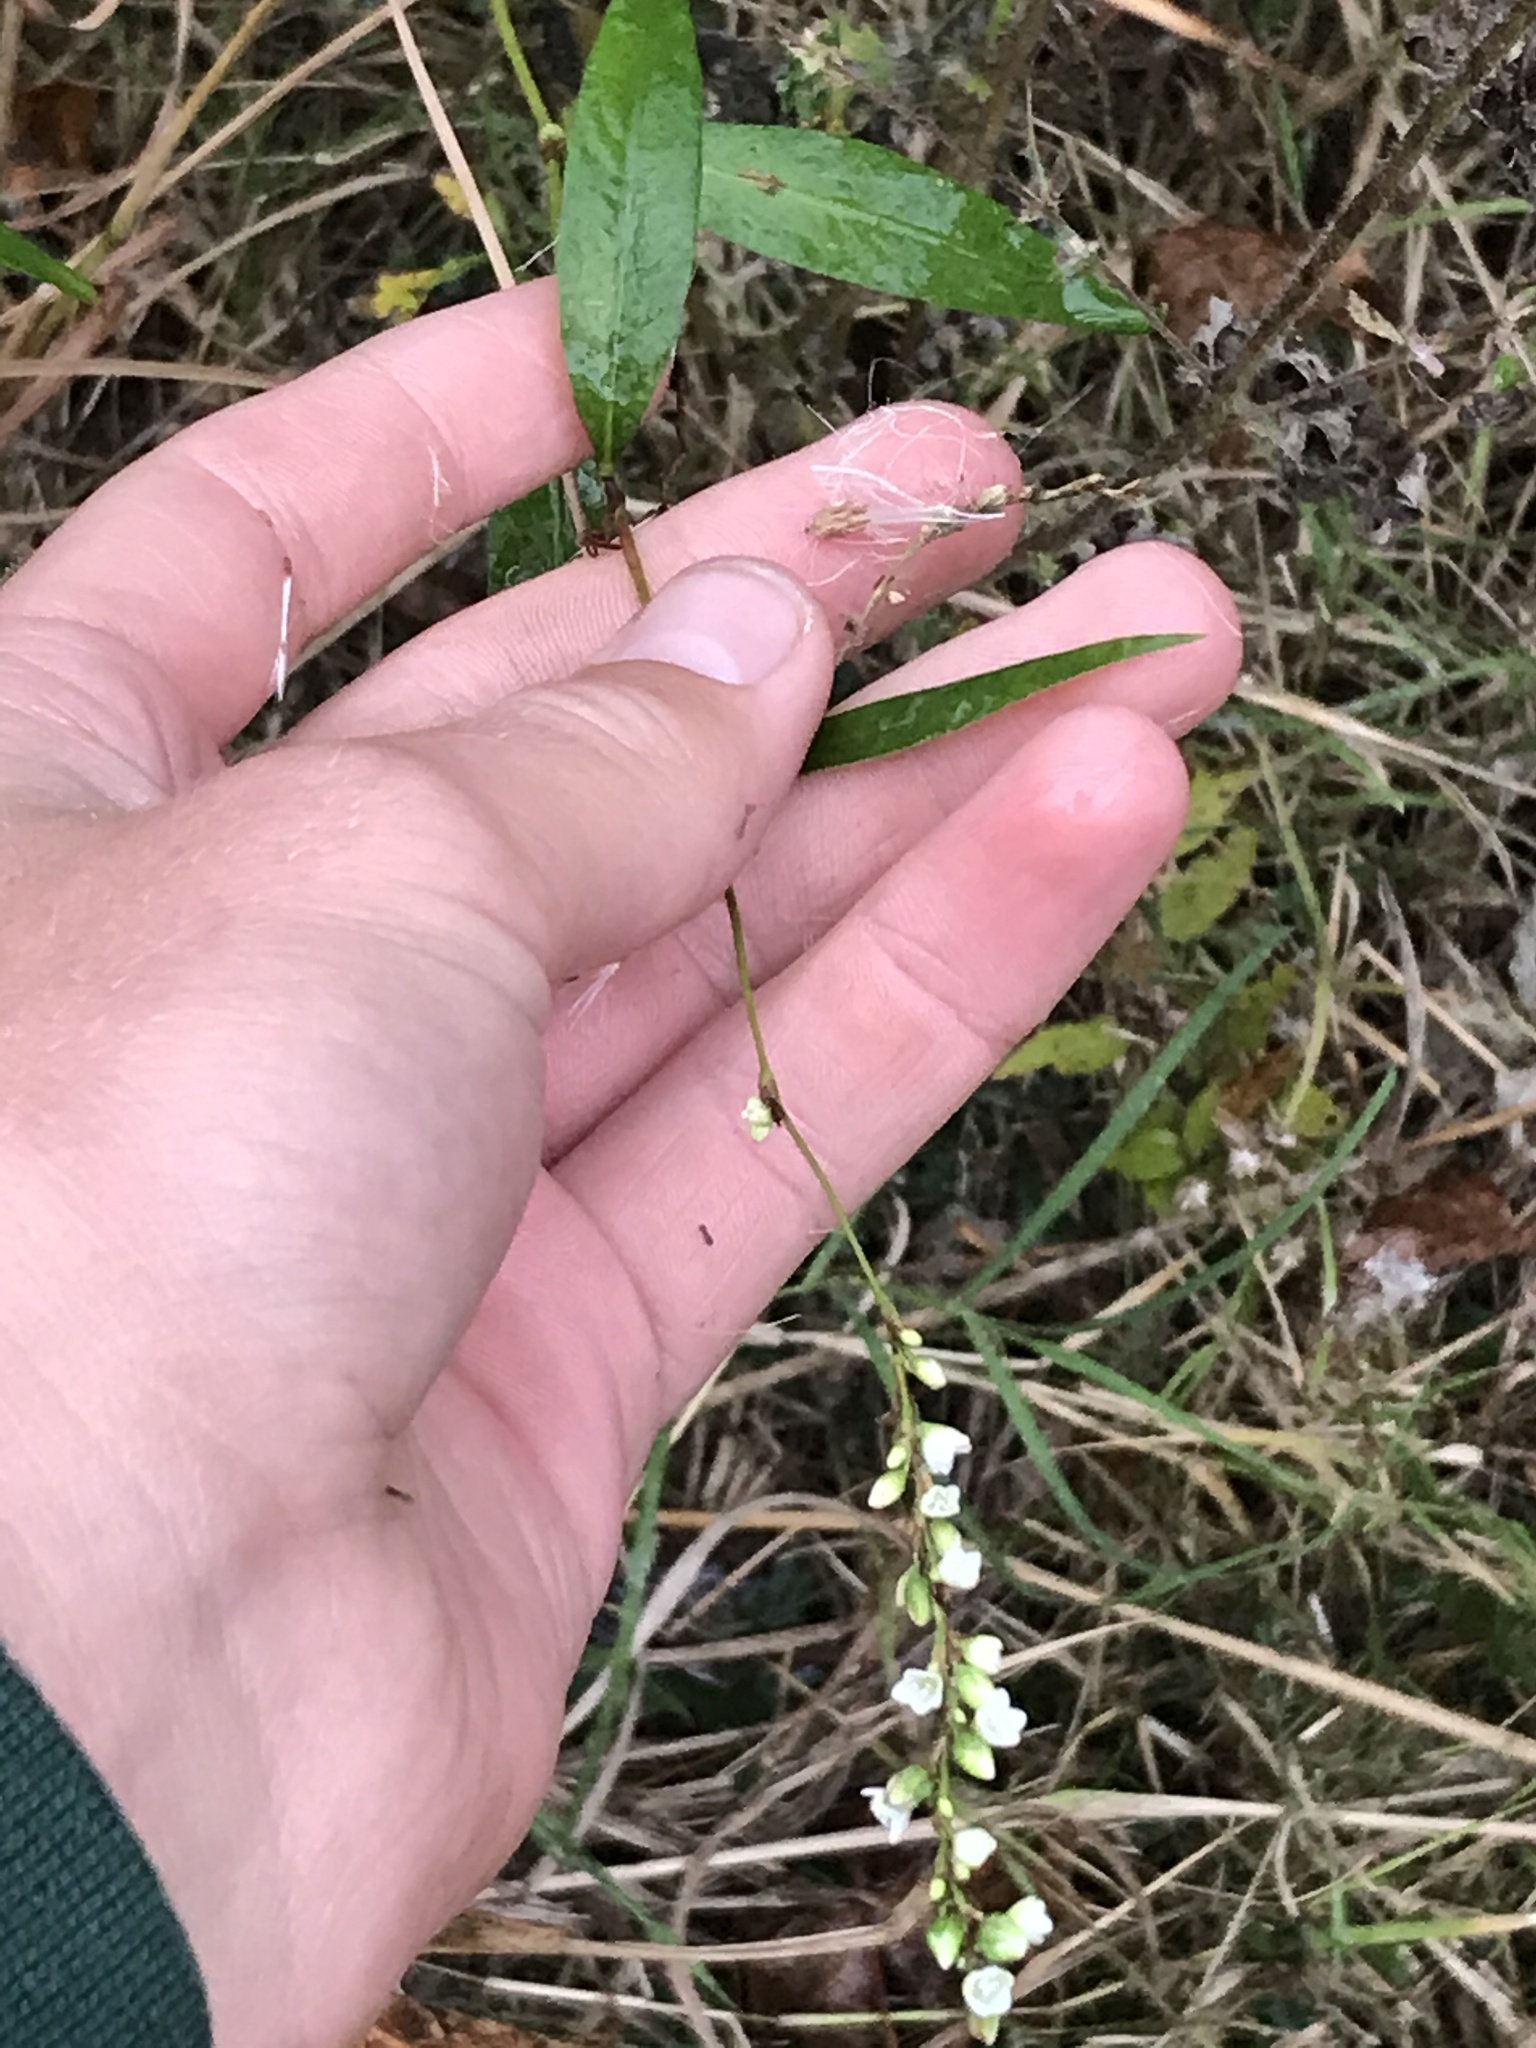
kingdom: Plantae
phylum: Tracheophyta
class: Magnoliopsida
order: Caryophyllales
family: Polygonaceae
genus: Persicaria
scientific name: Persicaria punctata
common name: Dotted smartweed
